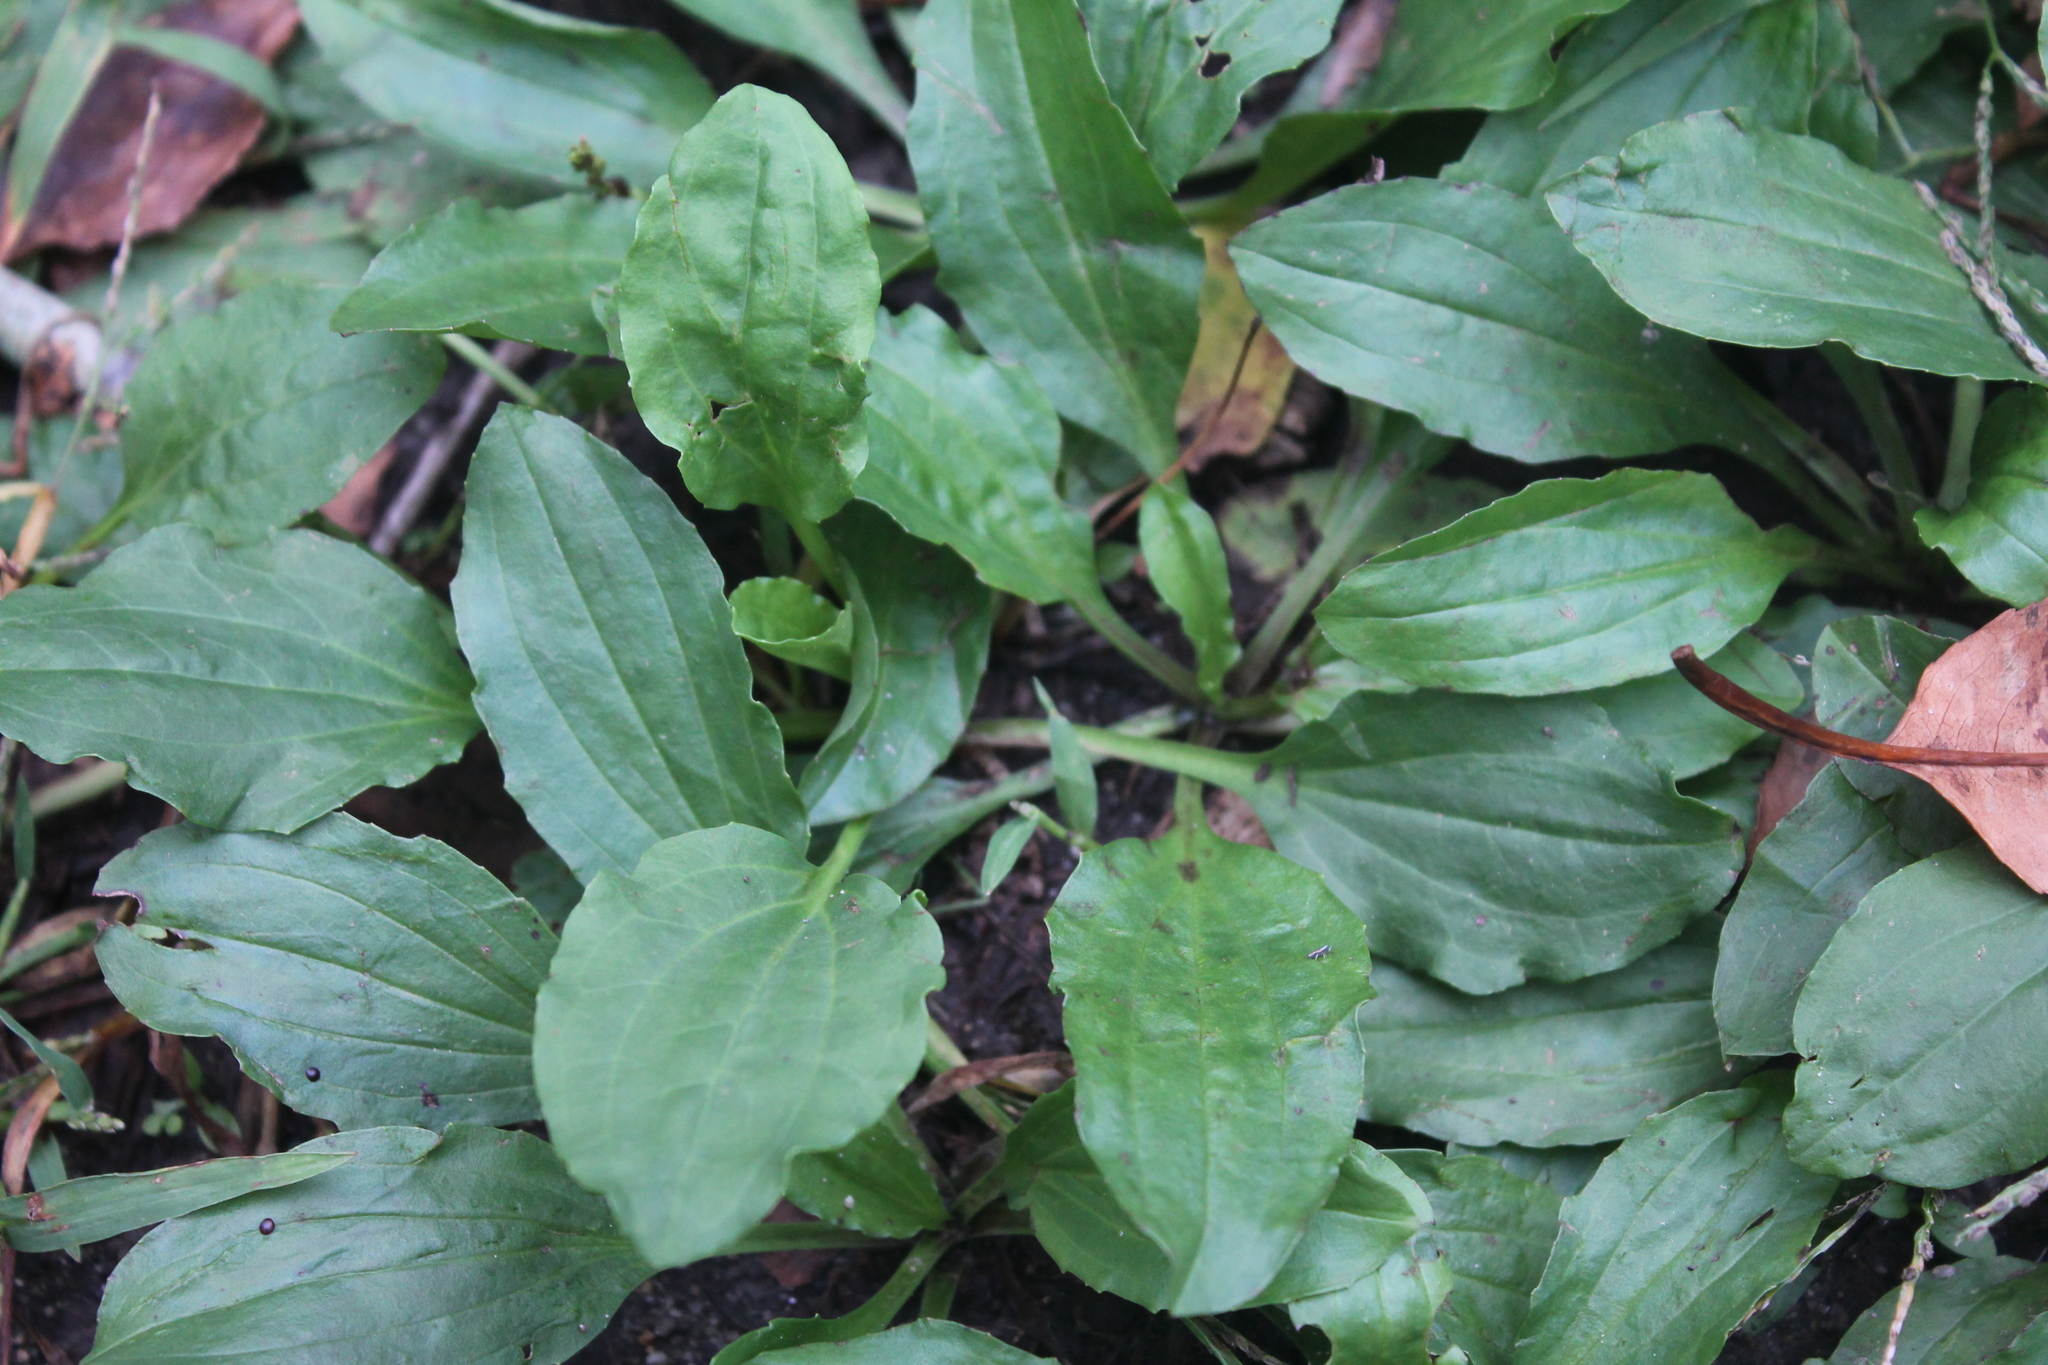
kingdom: Plantae
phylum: Tracheophyta
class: Magnoliopsida
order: Lamiales
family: Plantaginaceae
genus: Plantago
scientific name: Plantago rugelii
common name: American plantain
